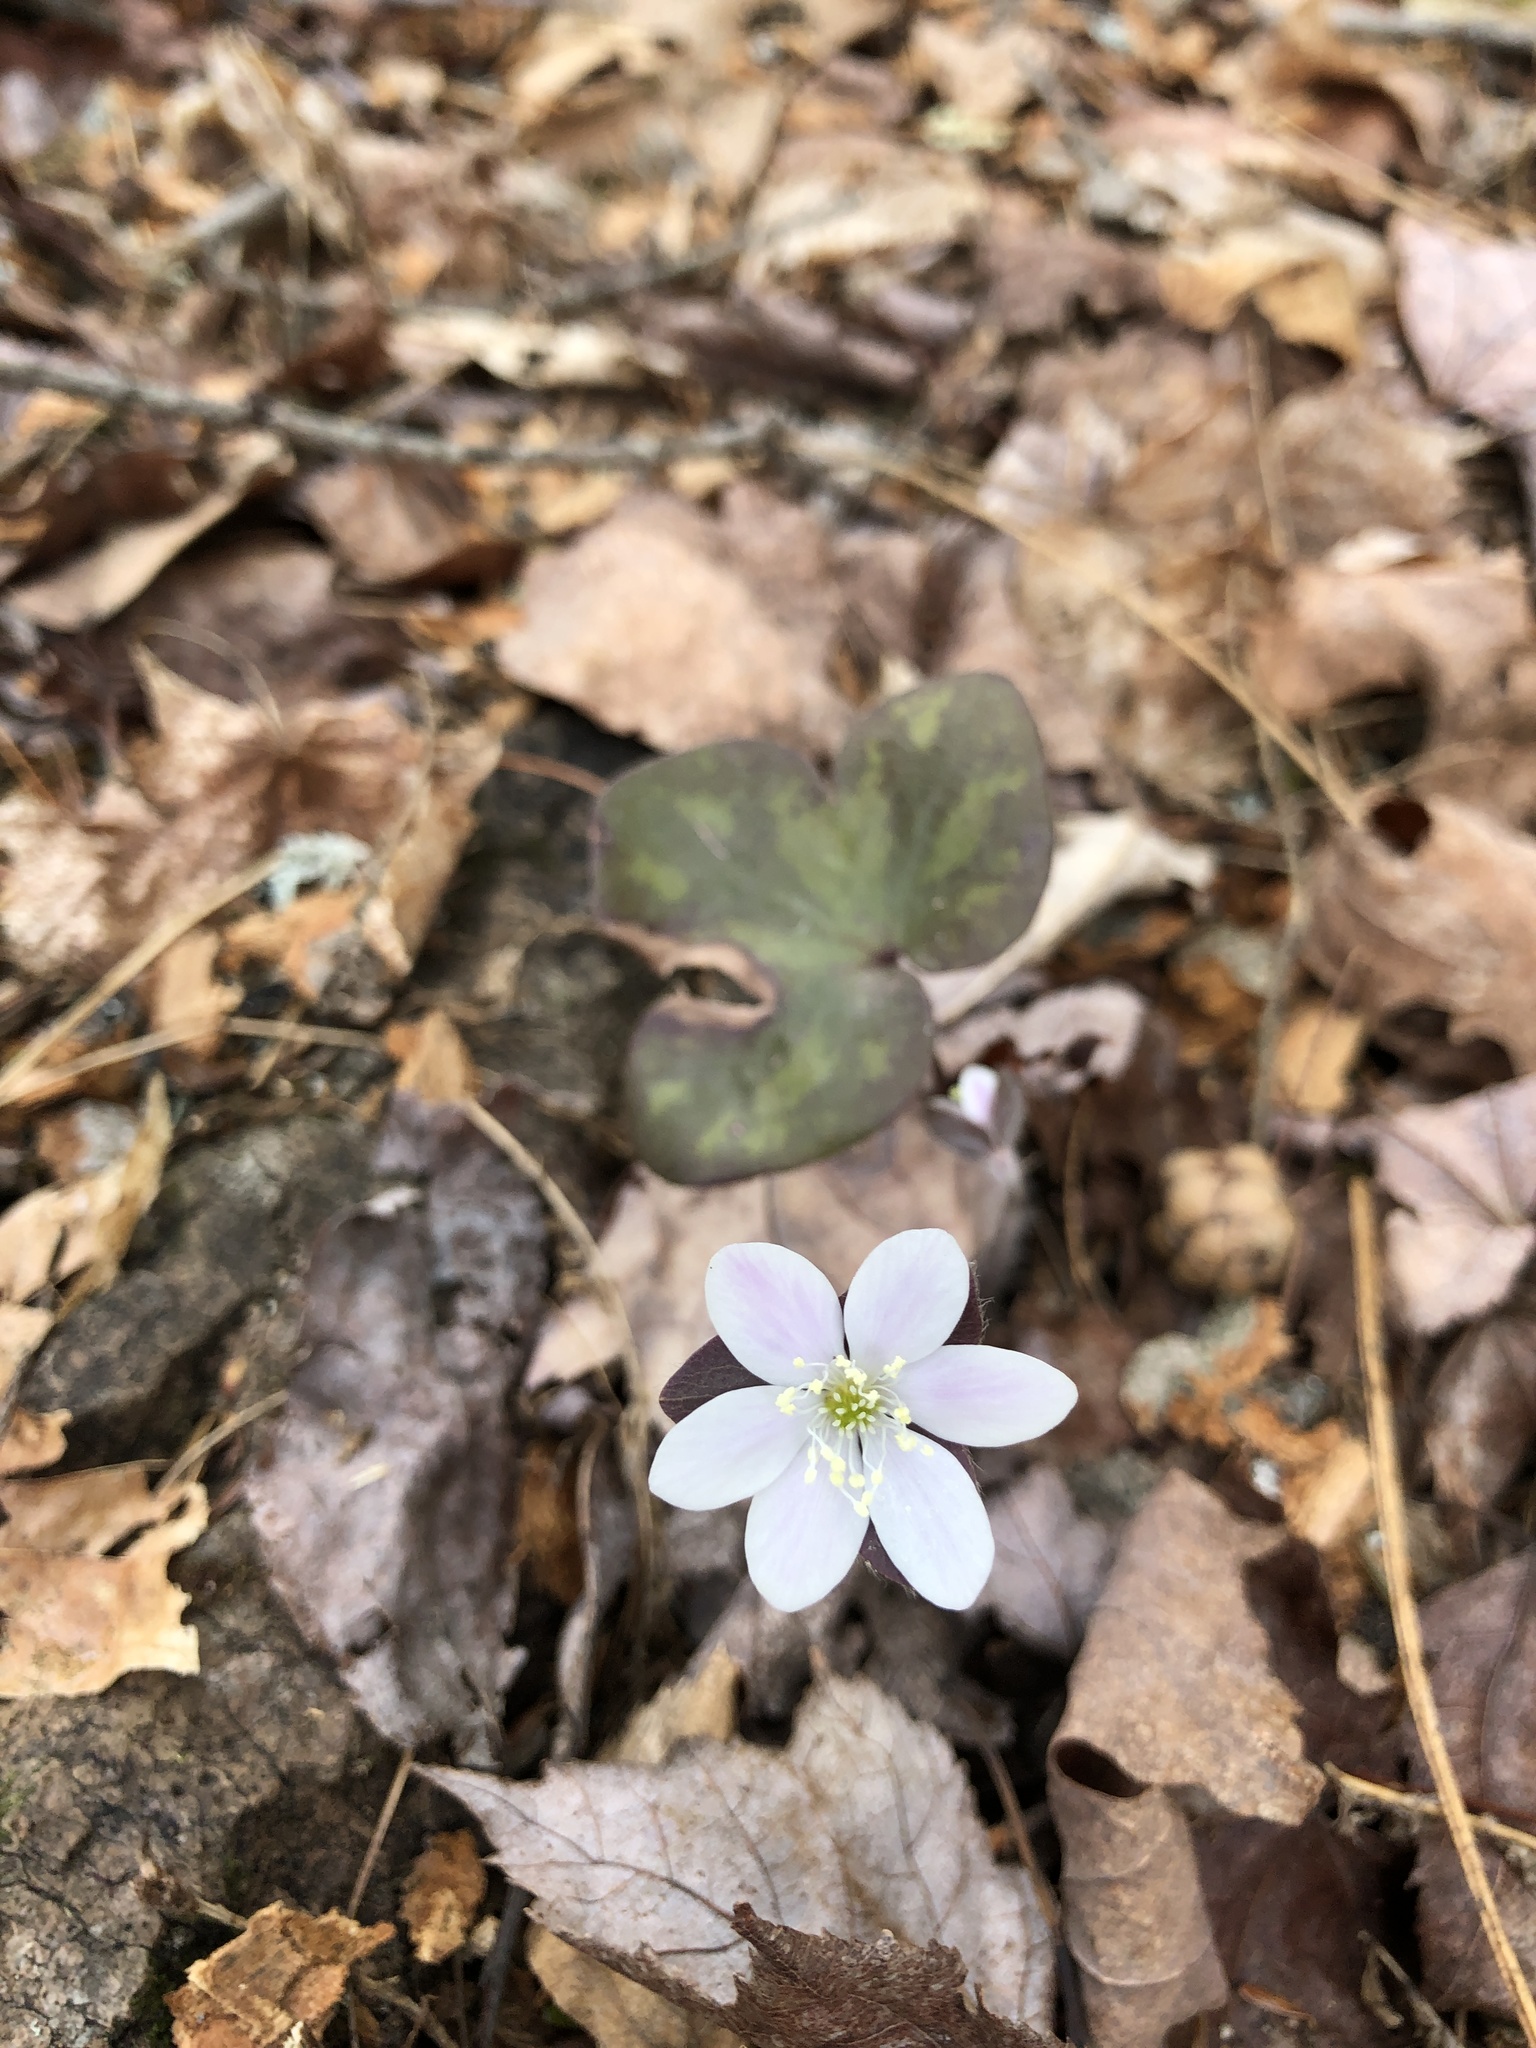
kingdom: Plantae
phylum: Tracheophyta
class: Magnoliopsida
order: Ranunculales
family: Ranunculaceae
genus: Hepatica
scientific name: Hepatica americana
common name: American hepatica
